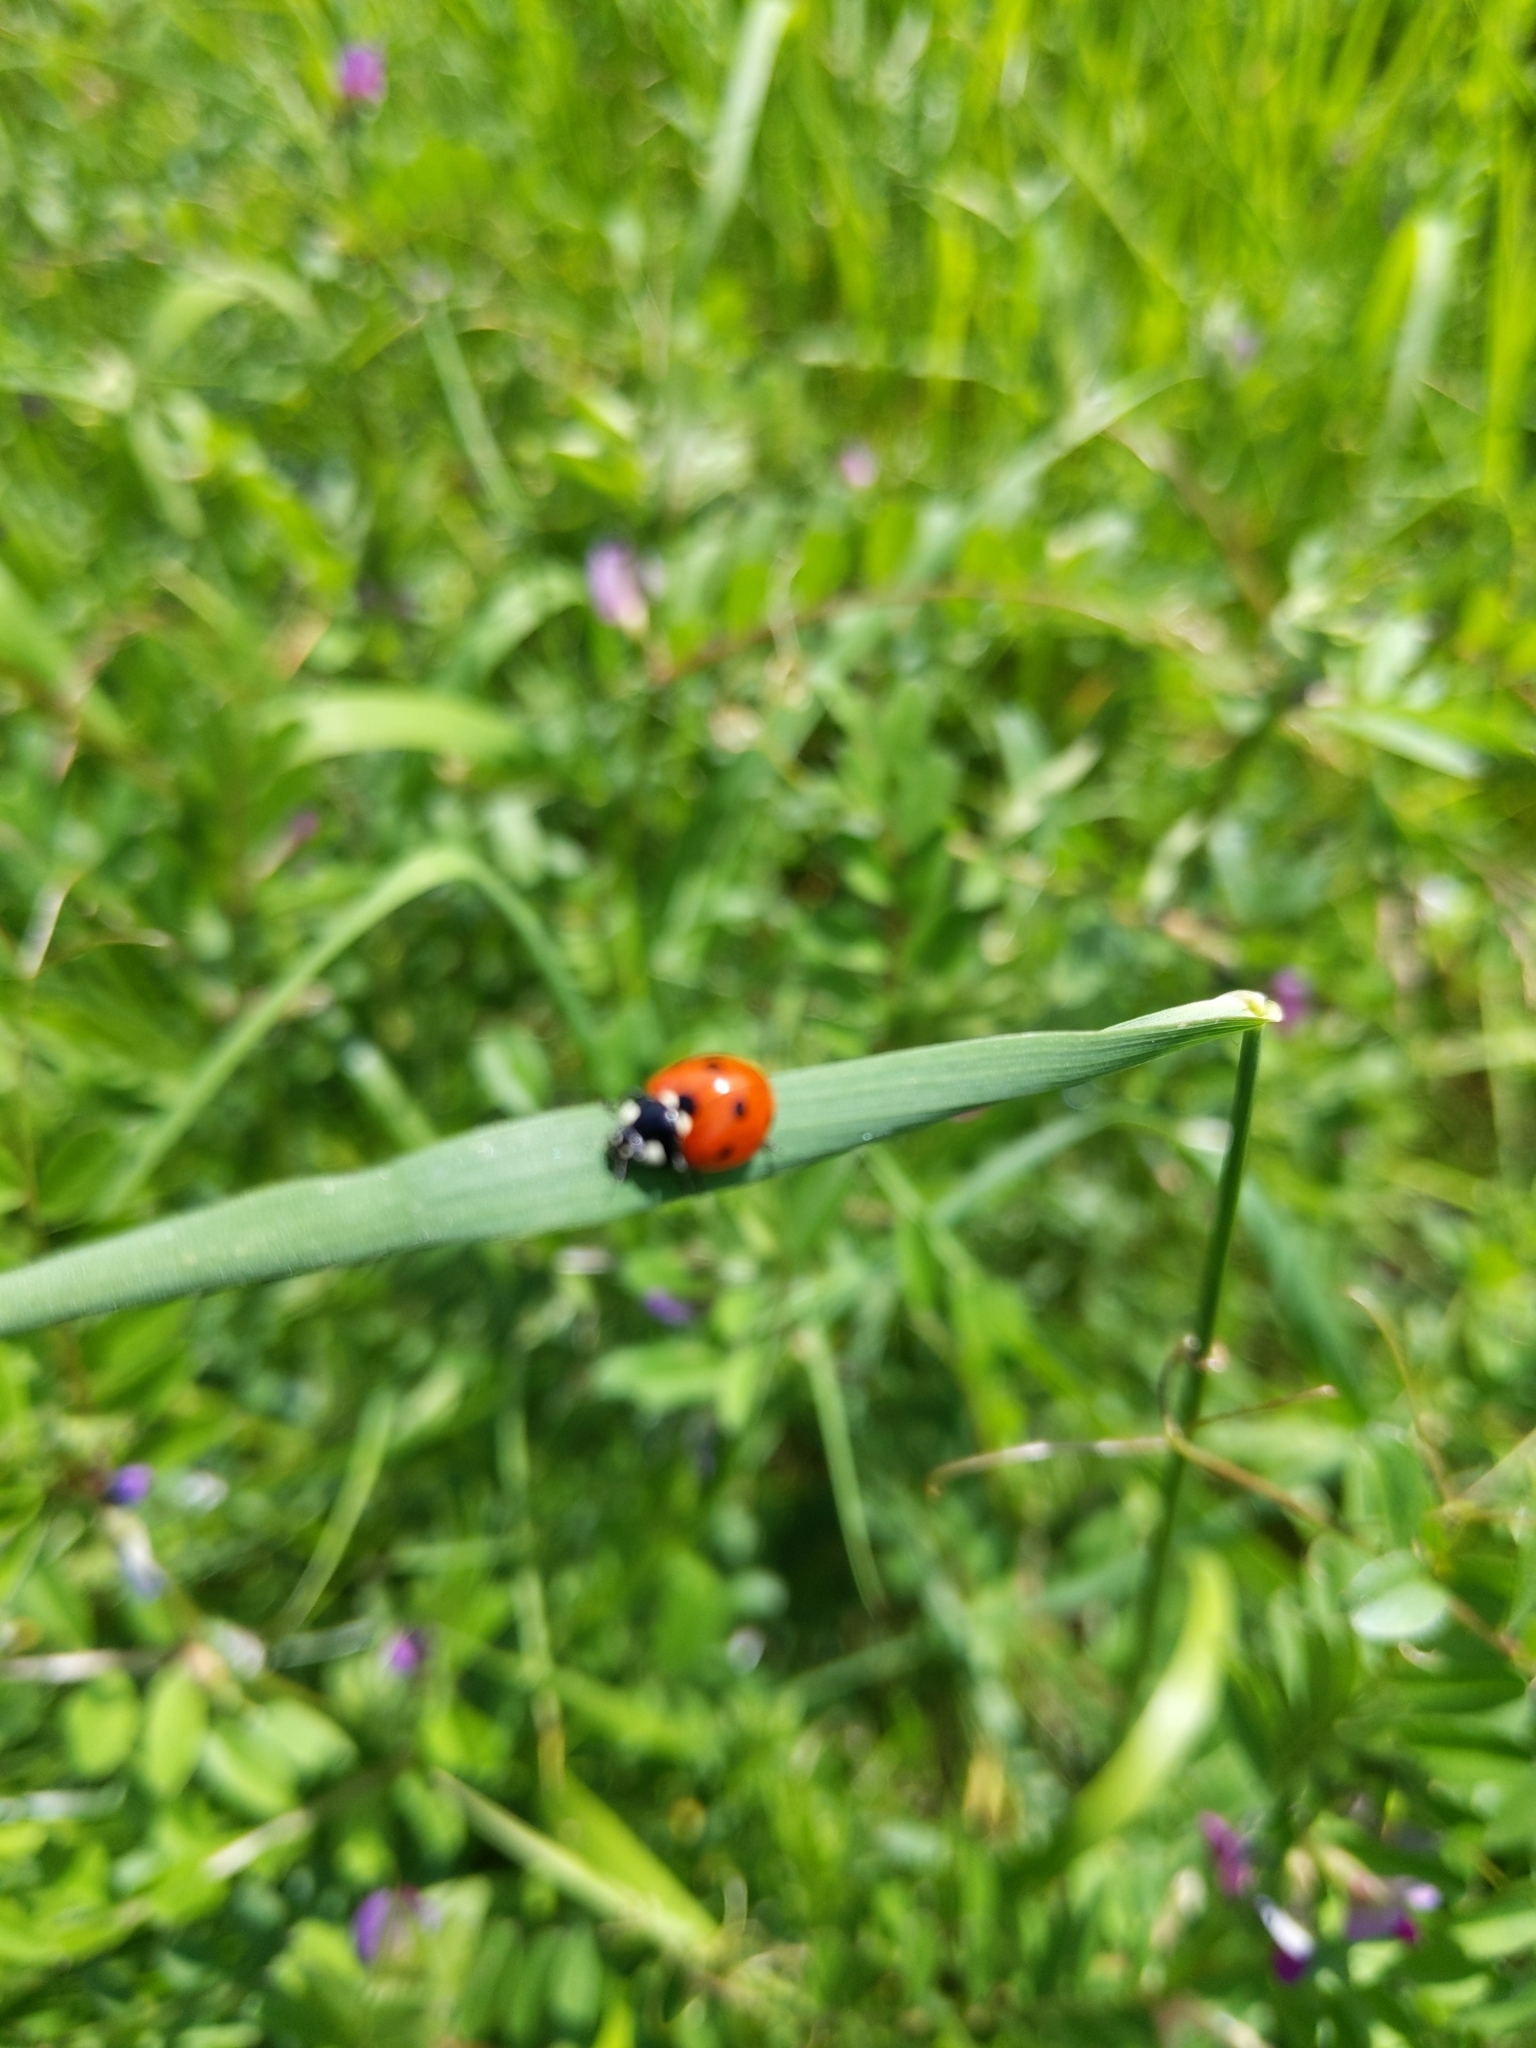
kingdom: Animalia
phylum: Arthropoda
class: Insecta
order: Coleoptera
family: Coccinellidae
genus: Coccinella
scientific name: Coccinella septempunctata
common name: Sevenspotted lady beetle
